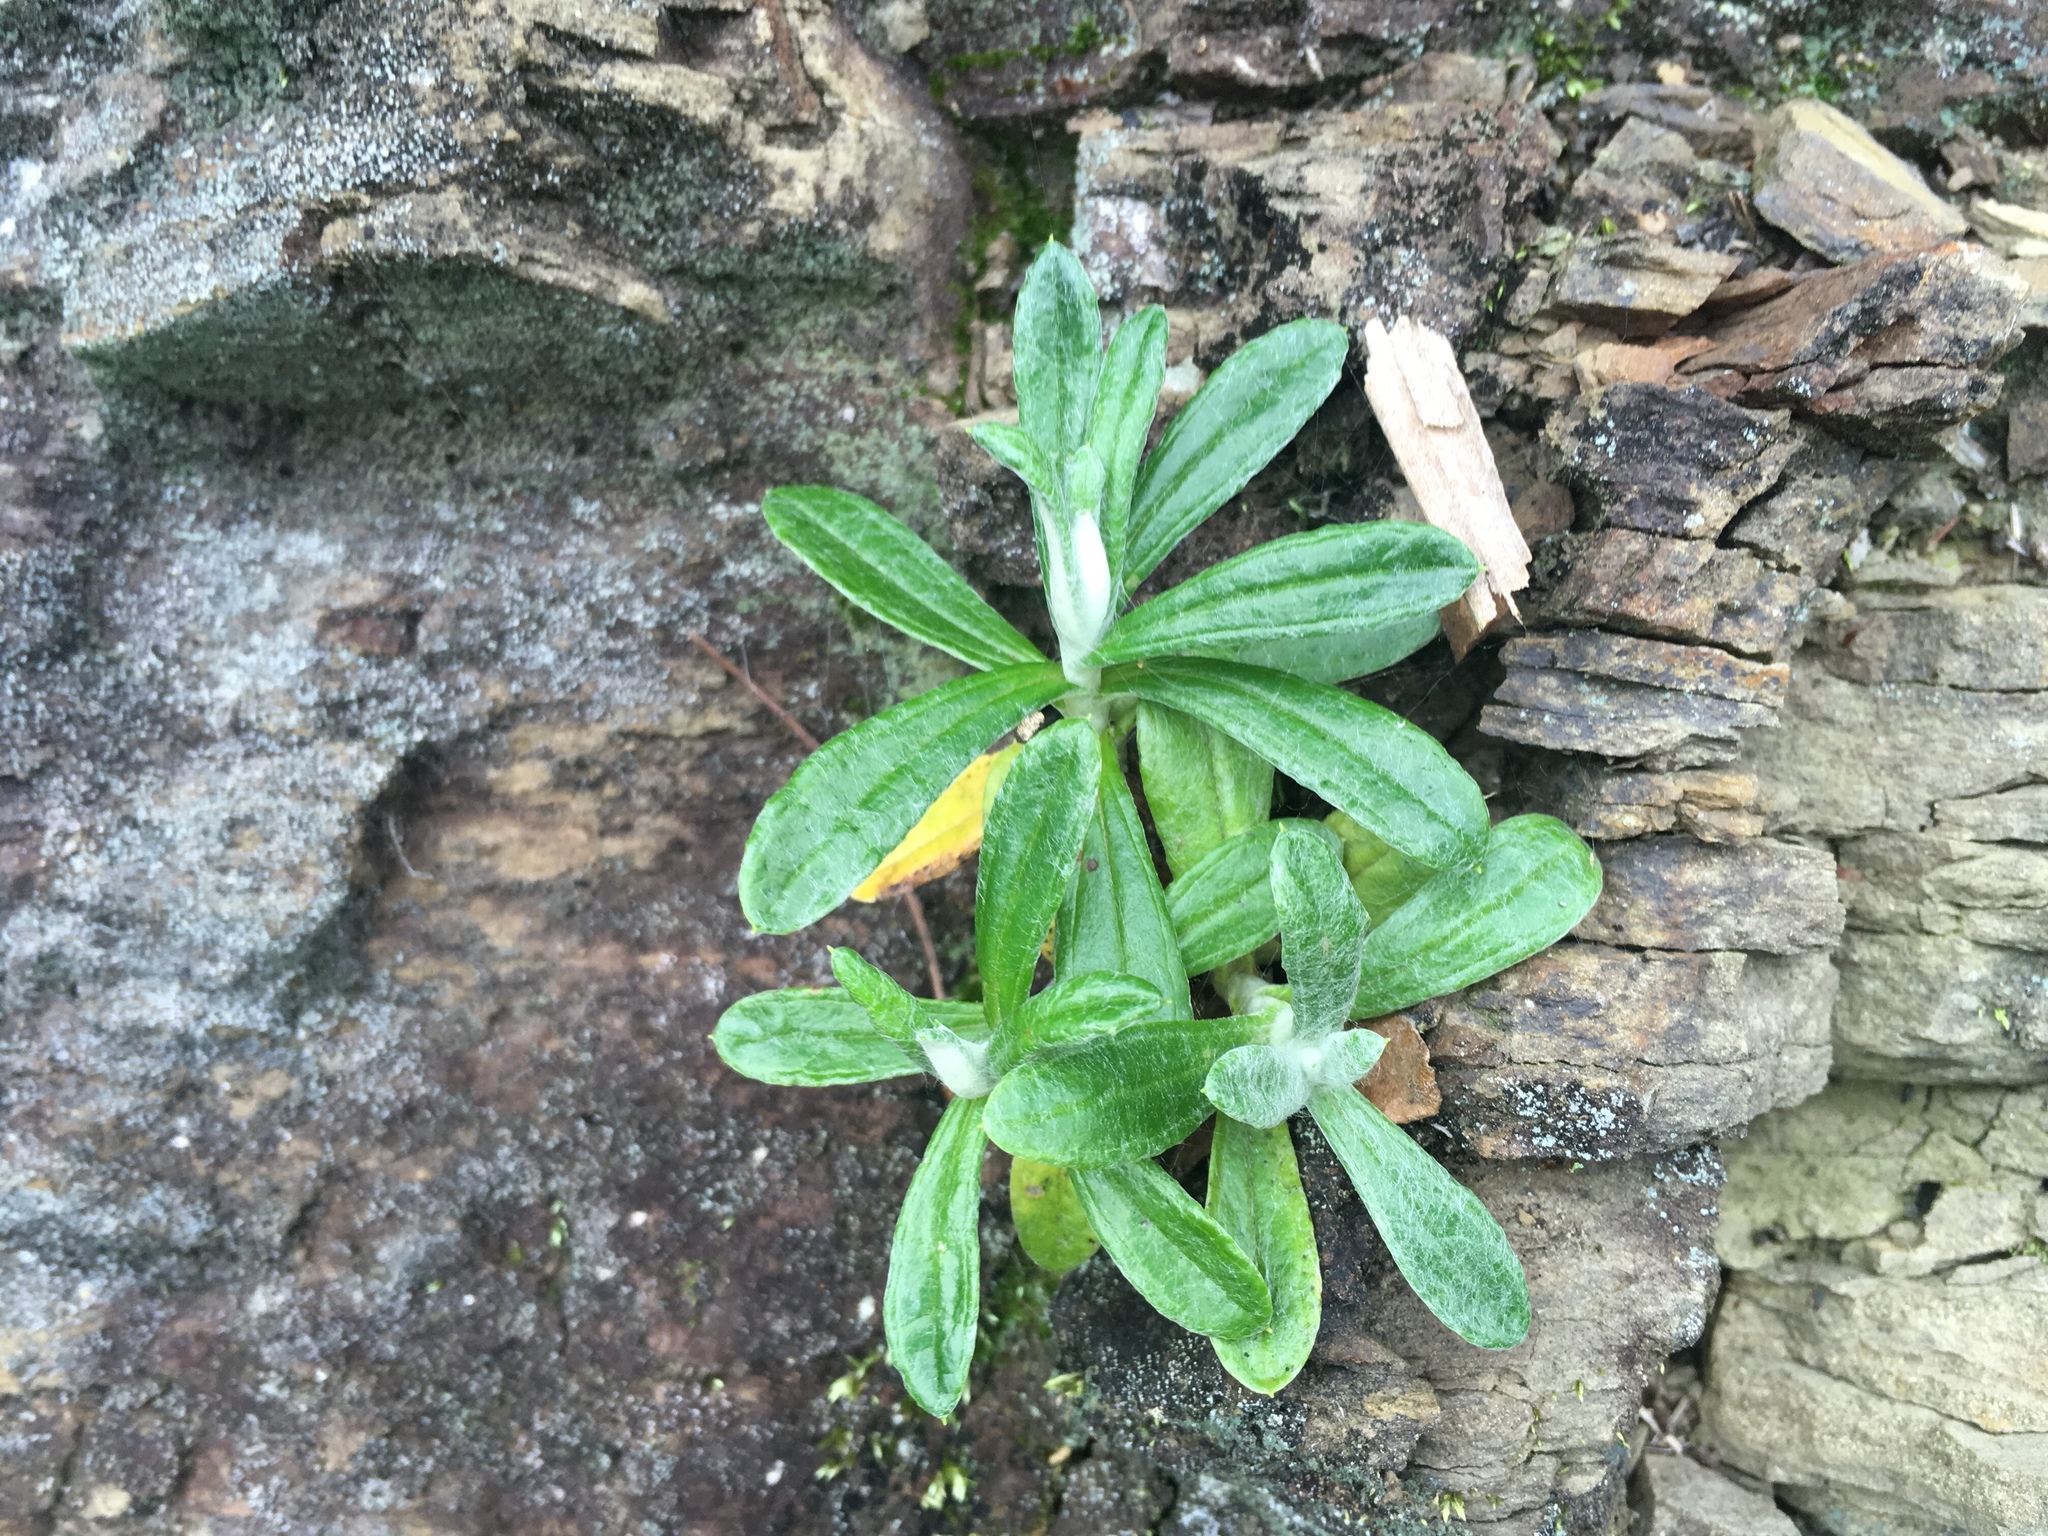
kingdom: Plantae
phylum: Tracheophyta
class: Magnoliopsida
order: Asterales
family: Asteraceae
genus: Anaphalis
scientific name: Anaphalis morrisonicola
